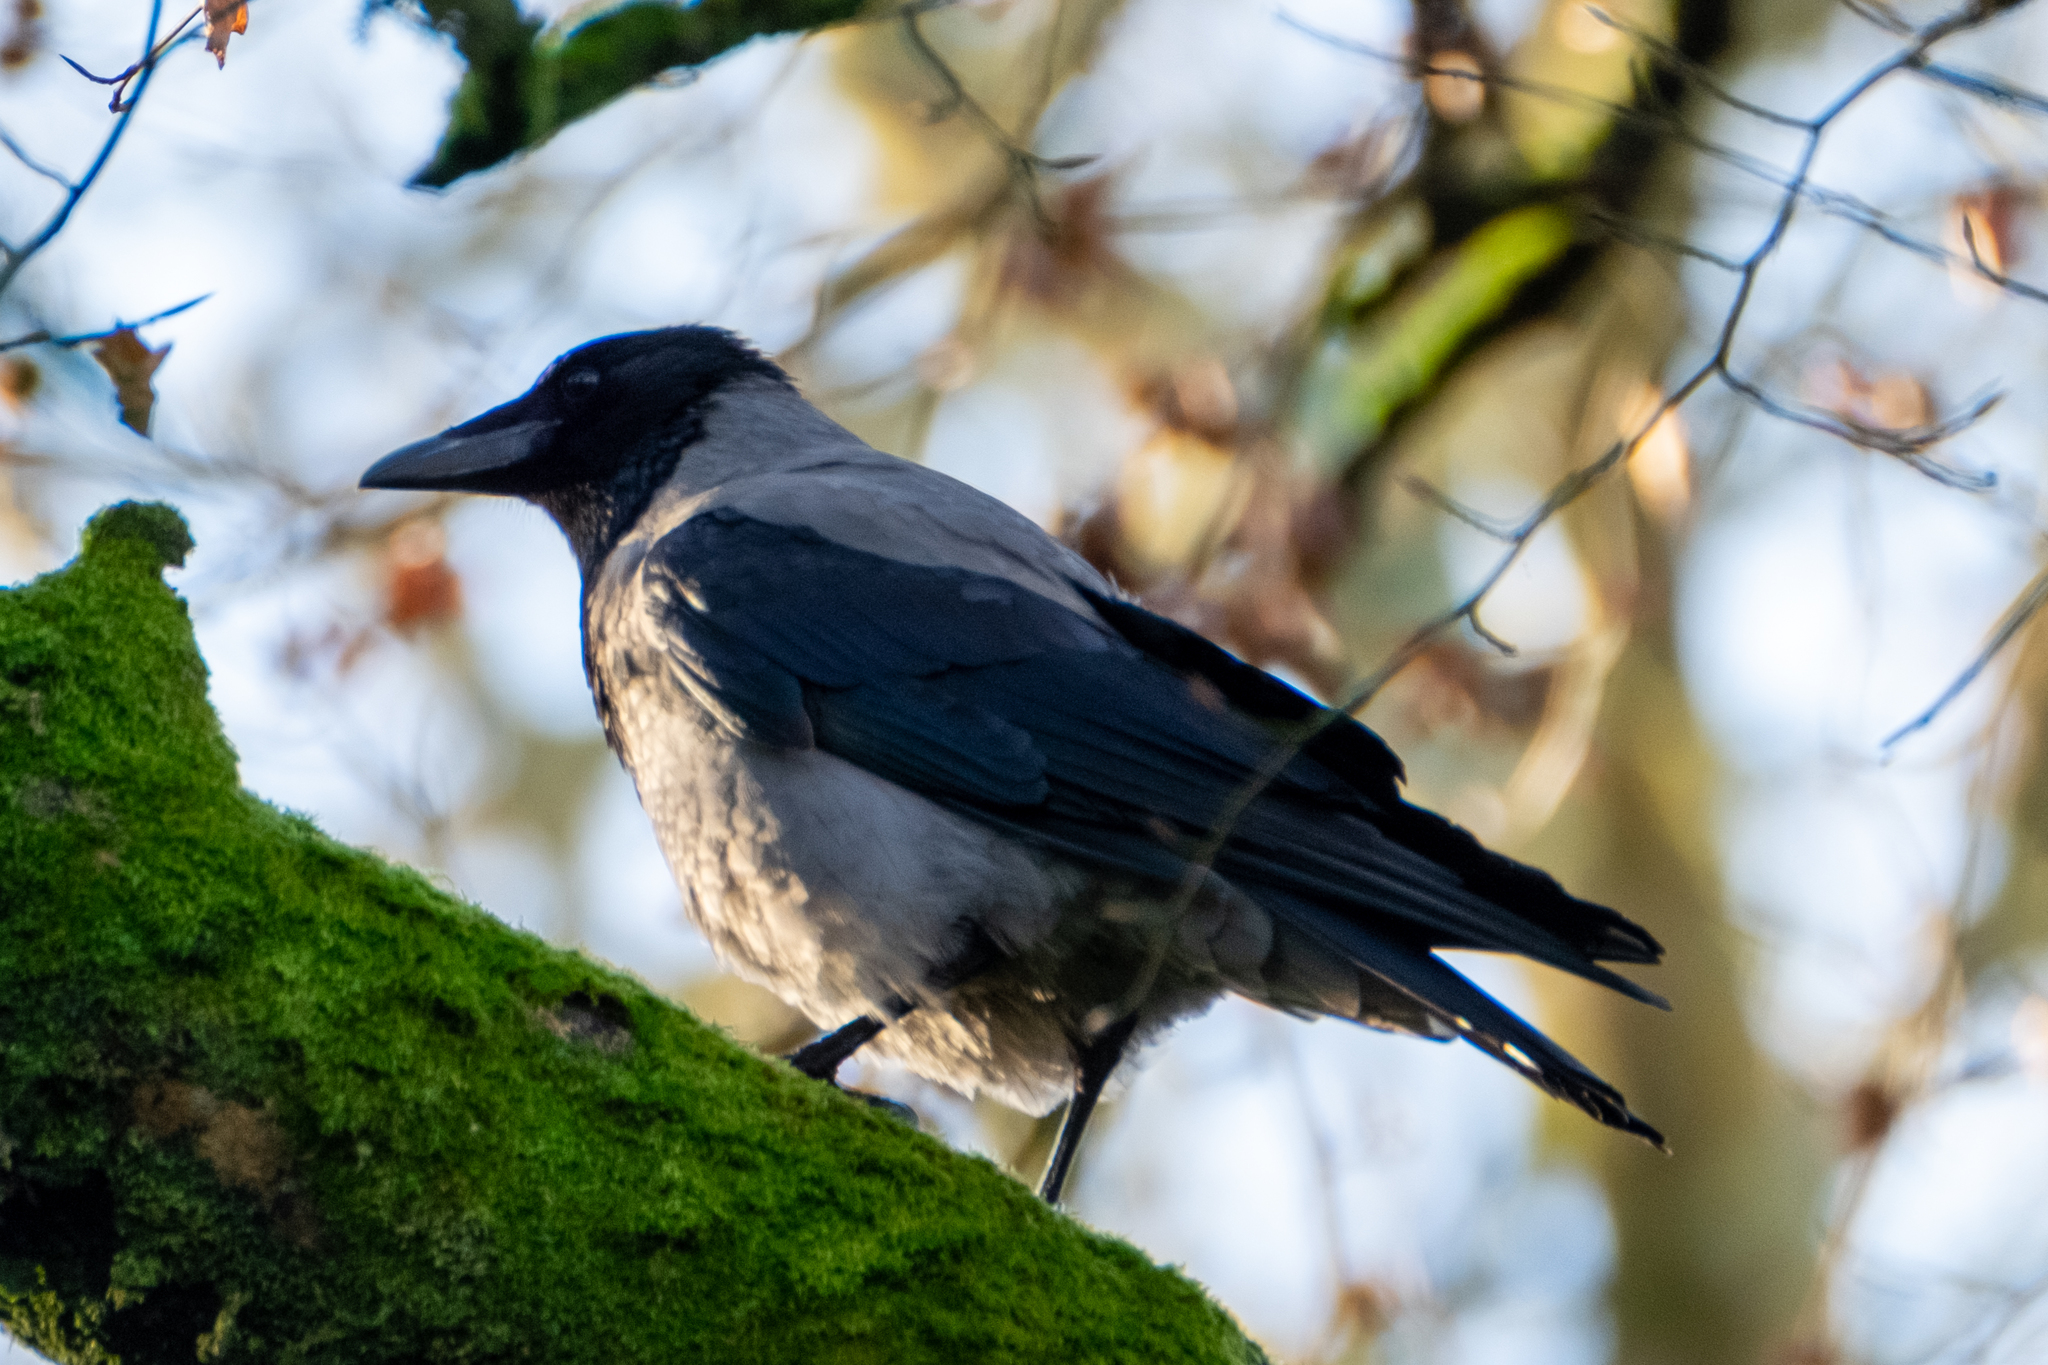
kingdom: Animalia
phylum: Chordata
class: Aves
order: Passeriformes
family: Corvidae
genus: Corvus
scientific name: Corvus cornix
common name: Hooded crow
